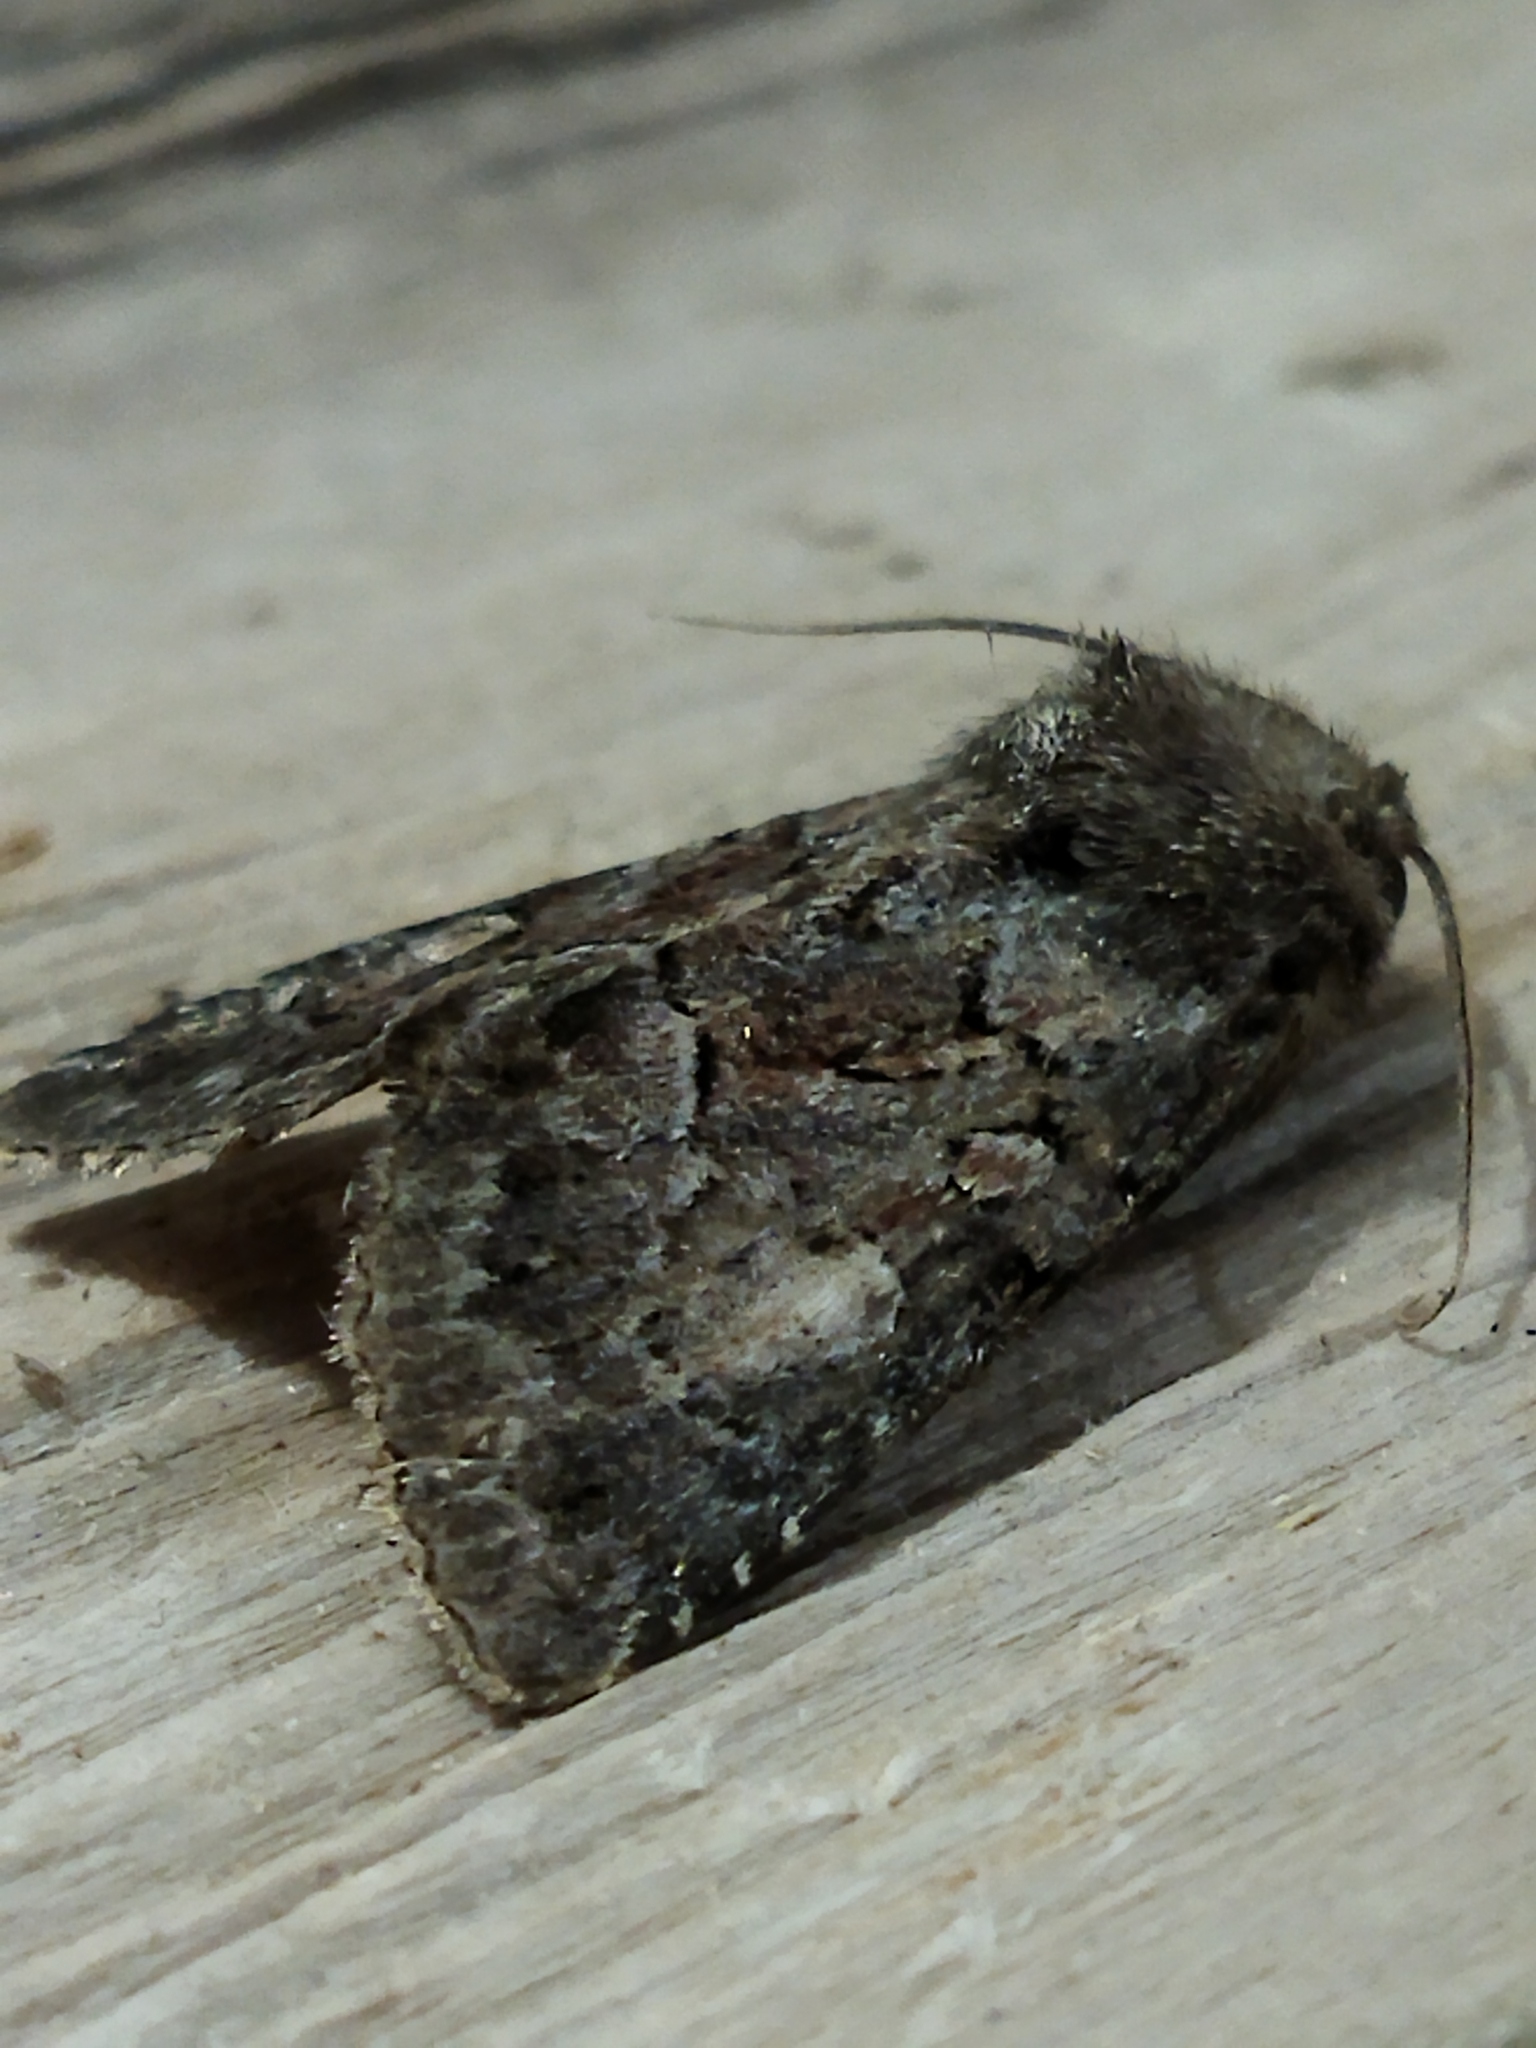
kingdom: Animalia
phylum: Arthropoda
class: Insecta
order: Lepidoptera
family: Noctuidae
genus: Thalpophila
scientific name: Thalpophila matura
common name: Straw underwing
